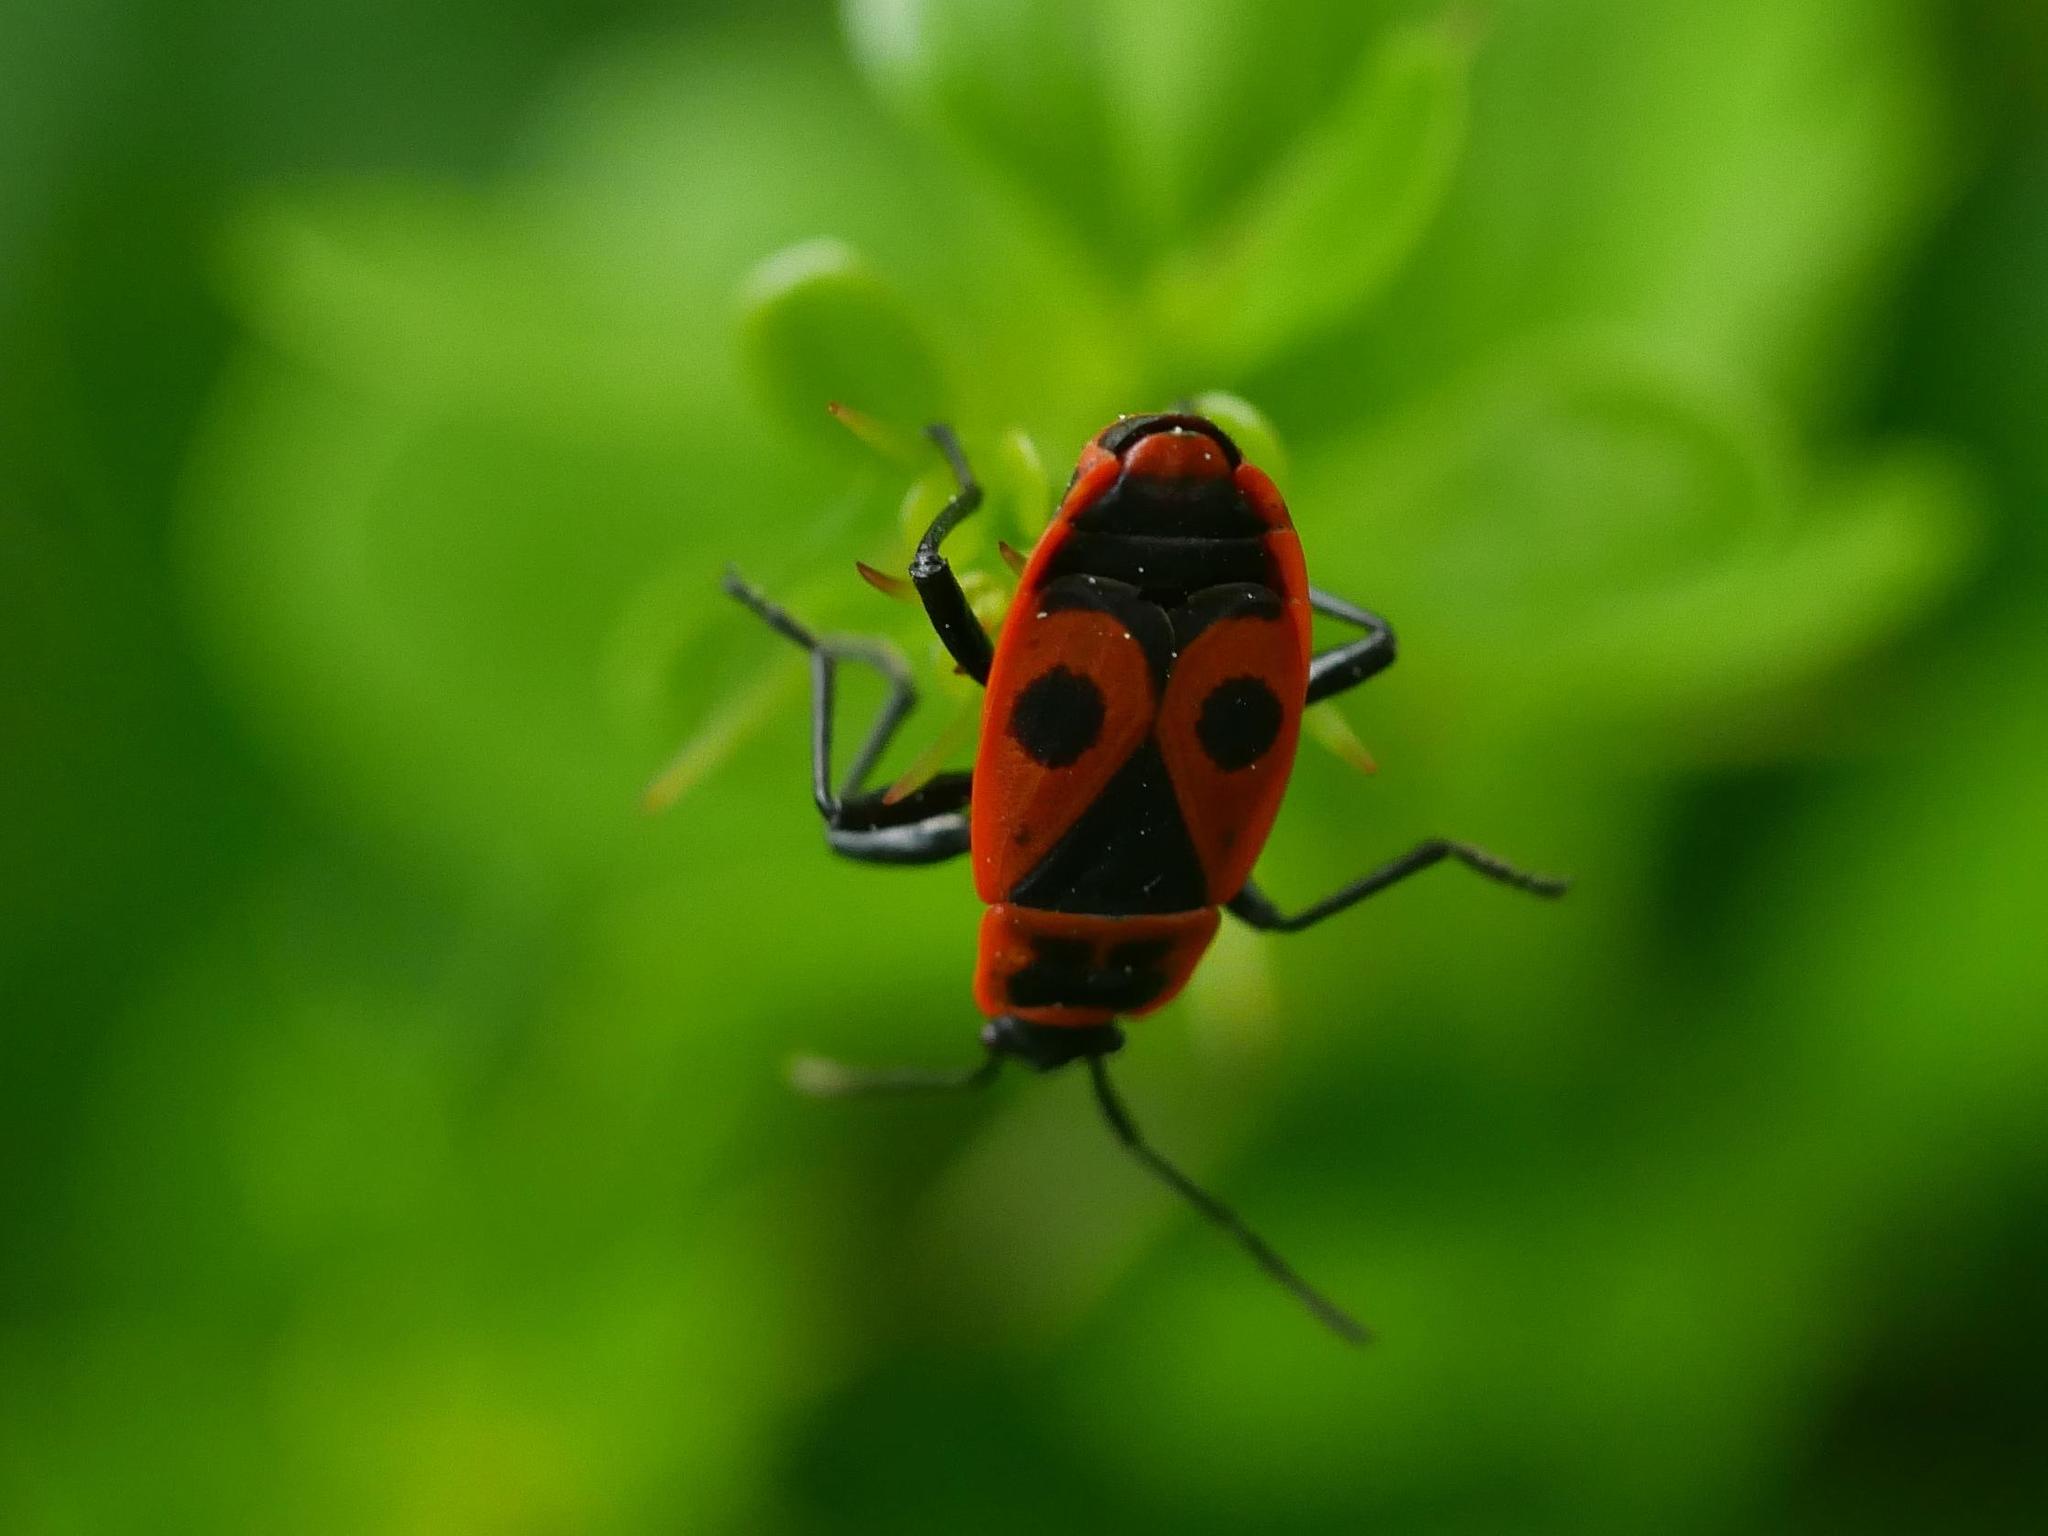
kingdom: Animalia
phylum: Arthropoda
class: Insecta
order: Hemiptera
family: Pyrrhocoridae
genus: Pyrrhocoris
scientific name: Pyrrhocoris apterus
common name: Firebug
